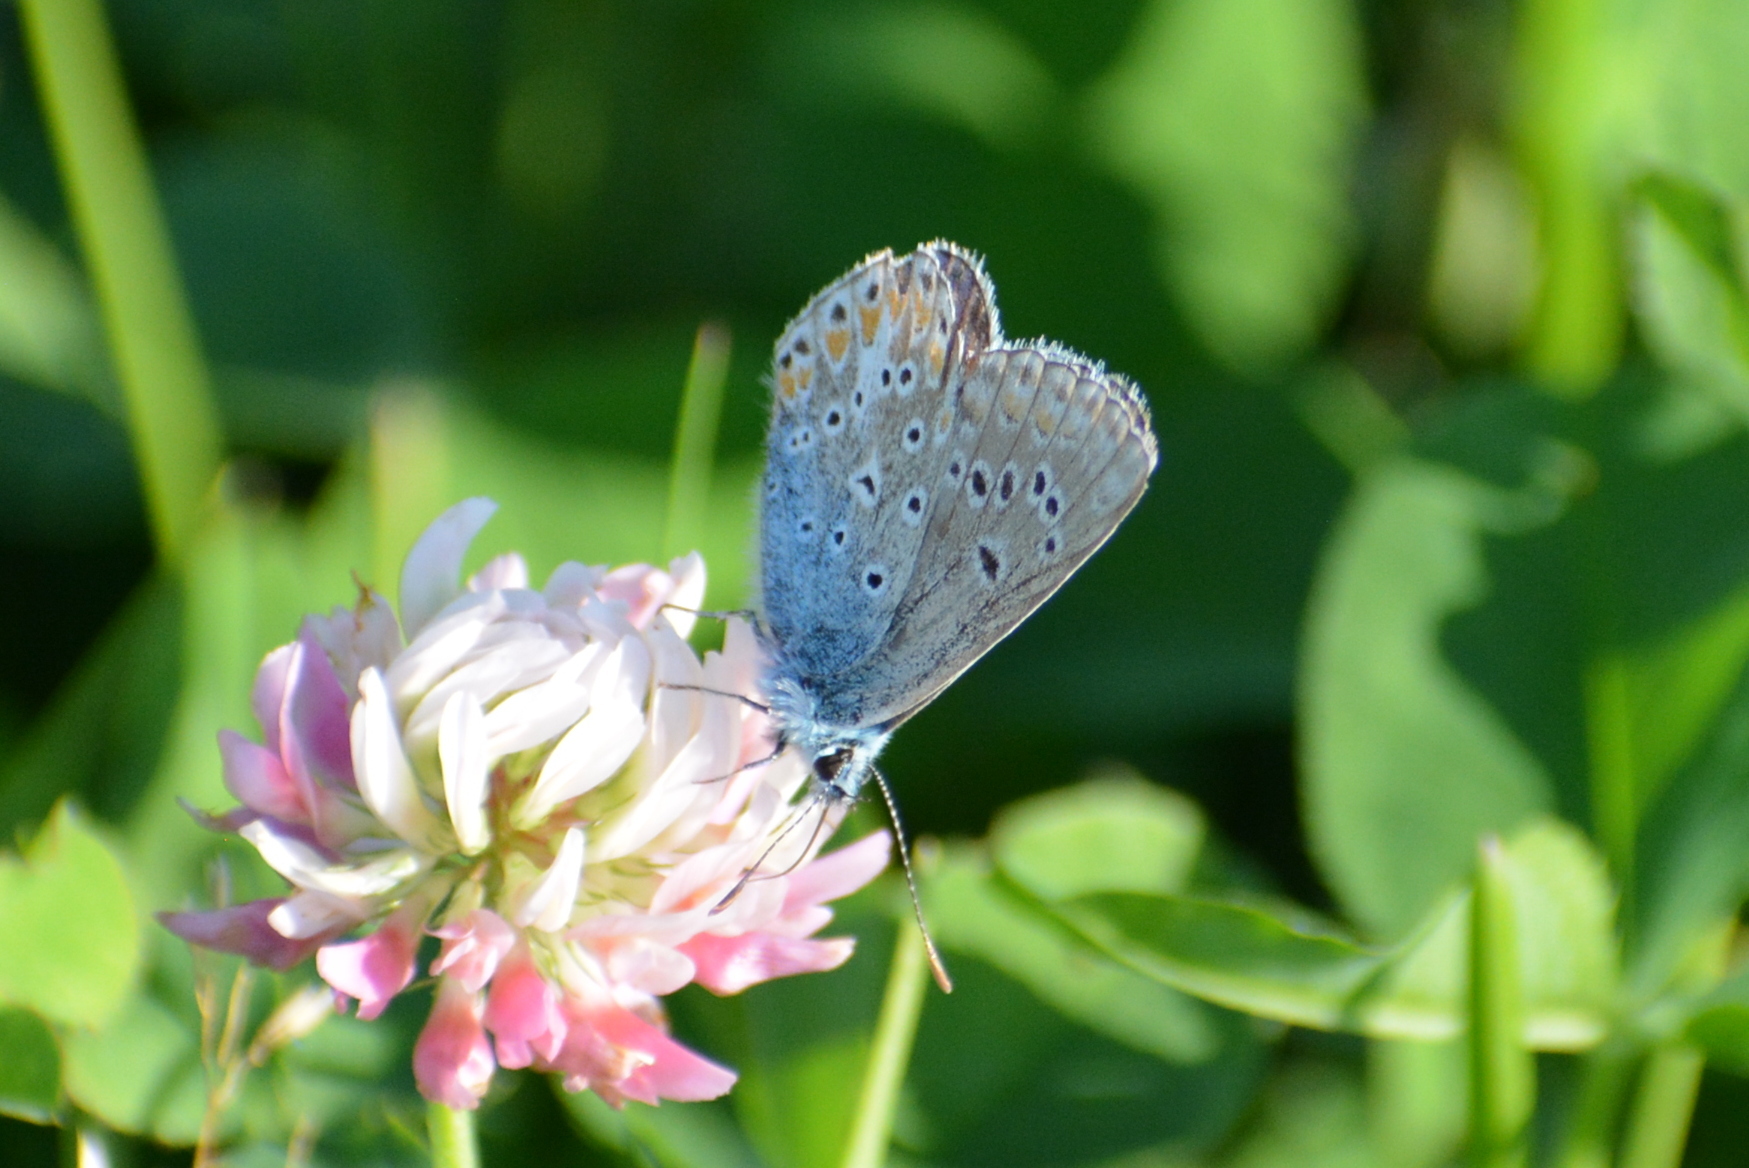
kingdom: Animalia
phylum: Arthropoda
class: Insecta
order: Lepidoptera
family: Lycaenidae
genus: Polyommatus
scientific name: Polyommatus thersites
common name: Chapman's blue
